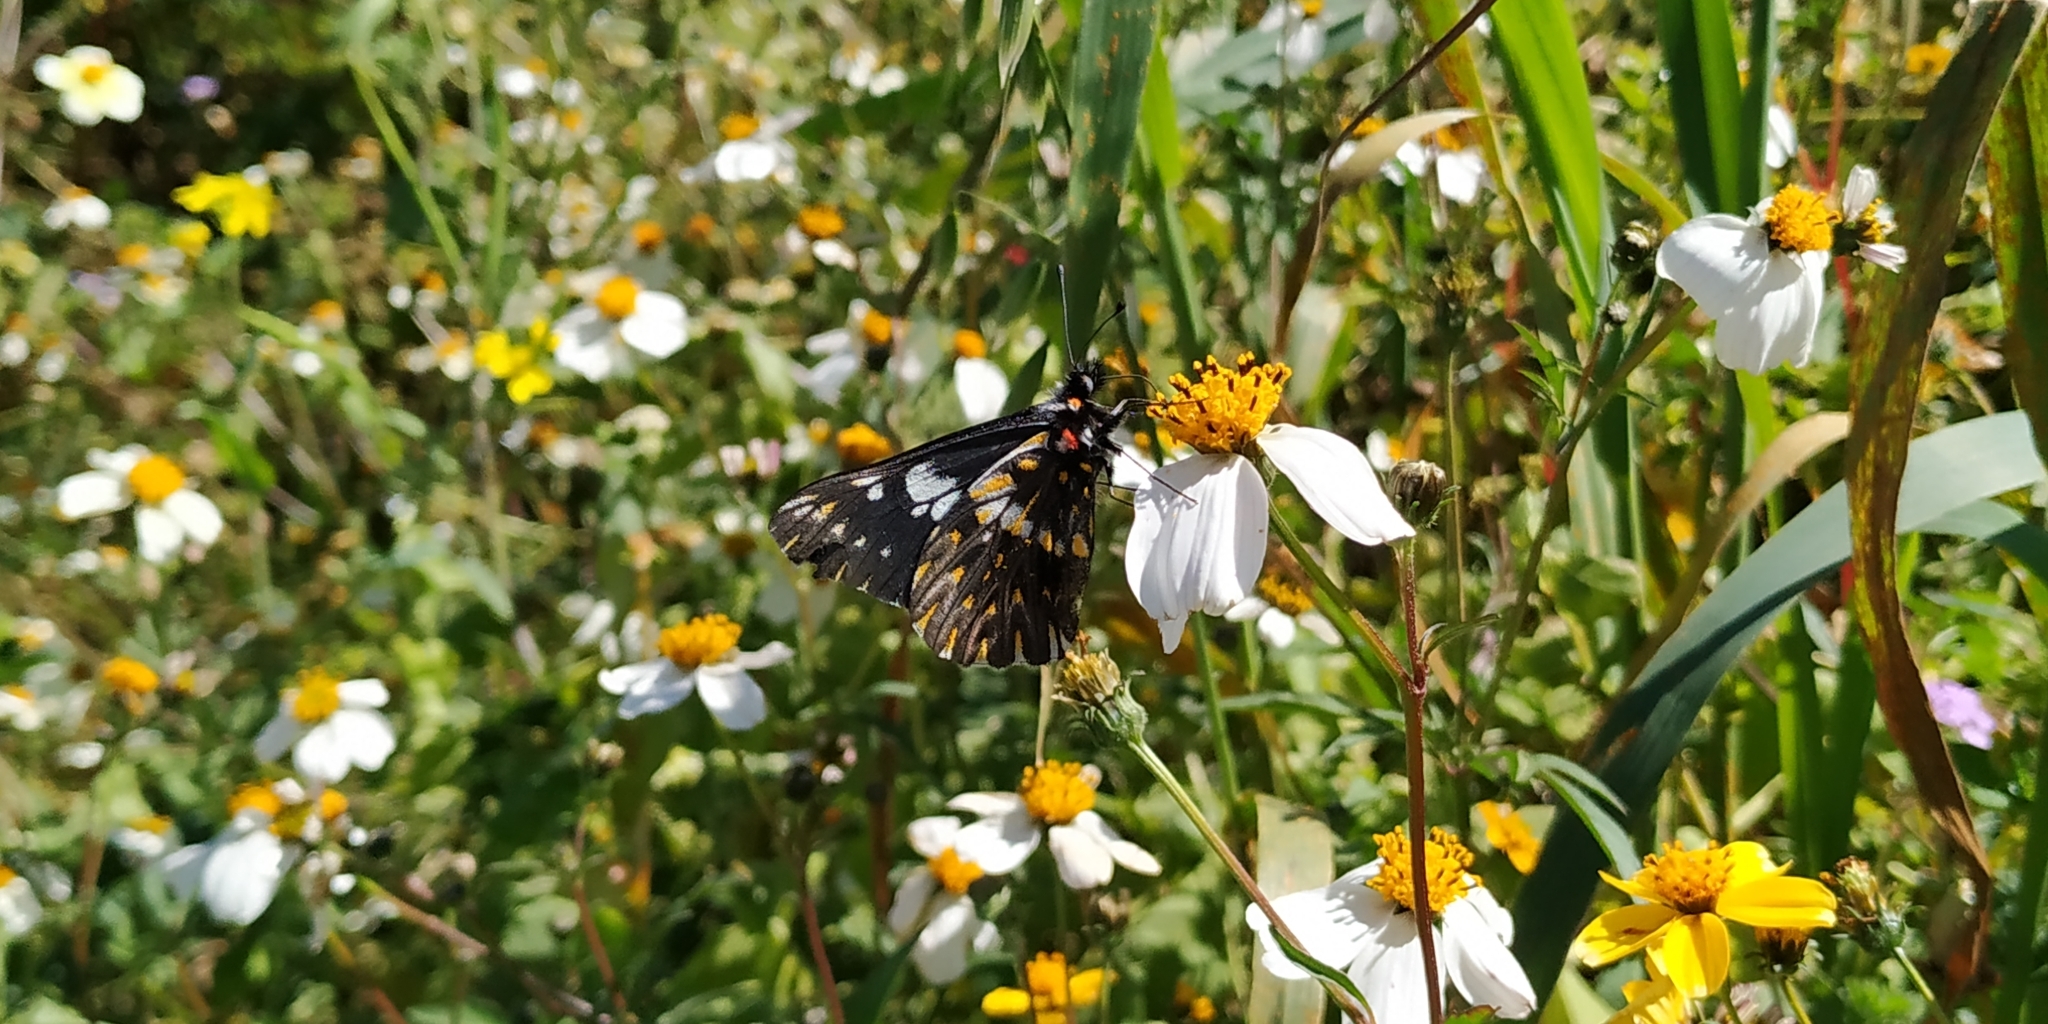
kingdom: Animalia
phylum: Arthropoda
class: Insecta
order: Lepidoptera
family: Pieridae
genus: Archonias
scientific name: Archonias teutila
